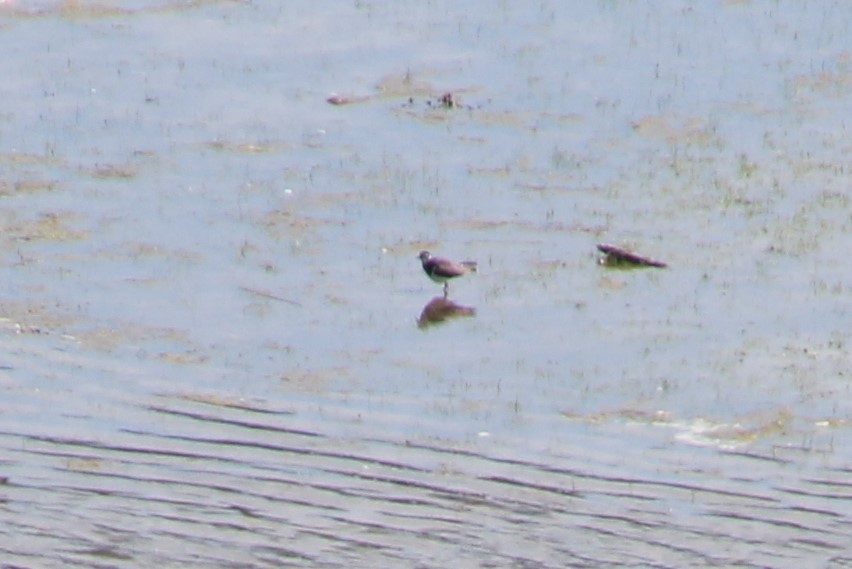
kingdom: Animalia
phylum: Chordata
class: Aves
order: Charadriiformes
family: Charadriidae
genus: Vanellus
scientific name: Vanellus vanellus
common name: Northern lapwing
